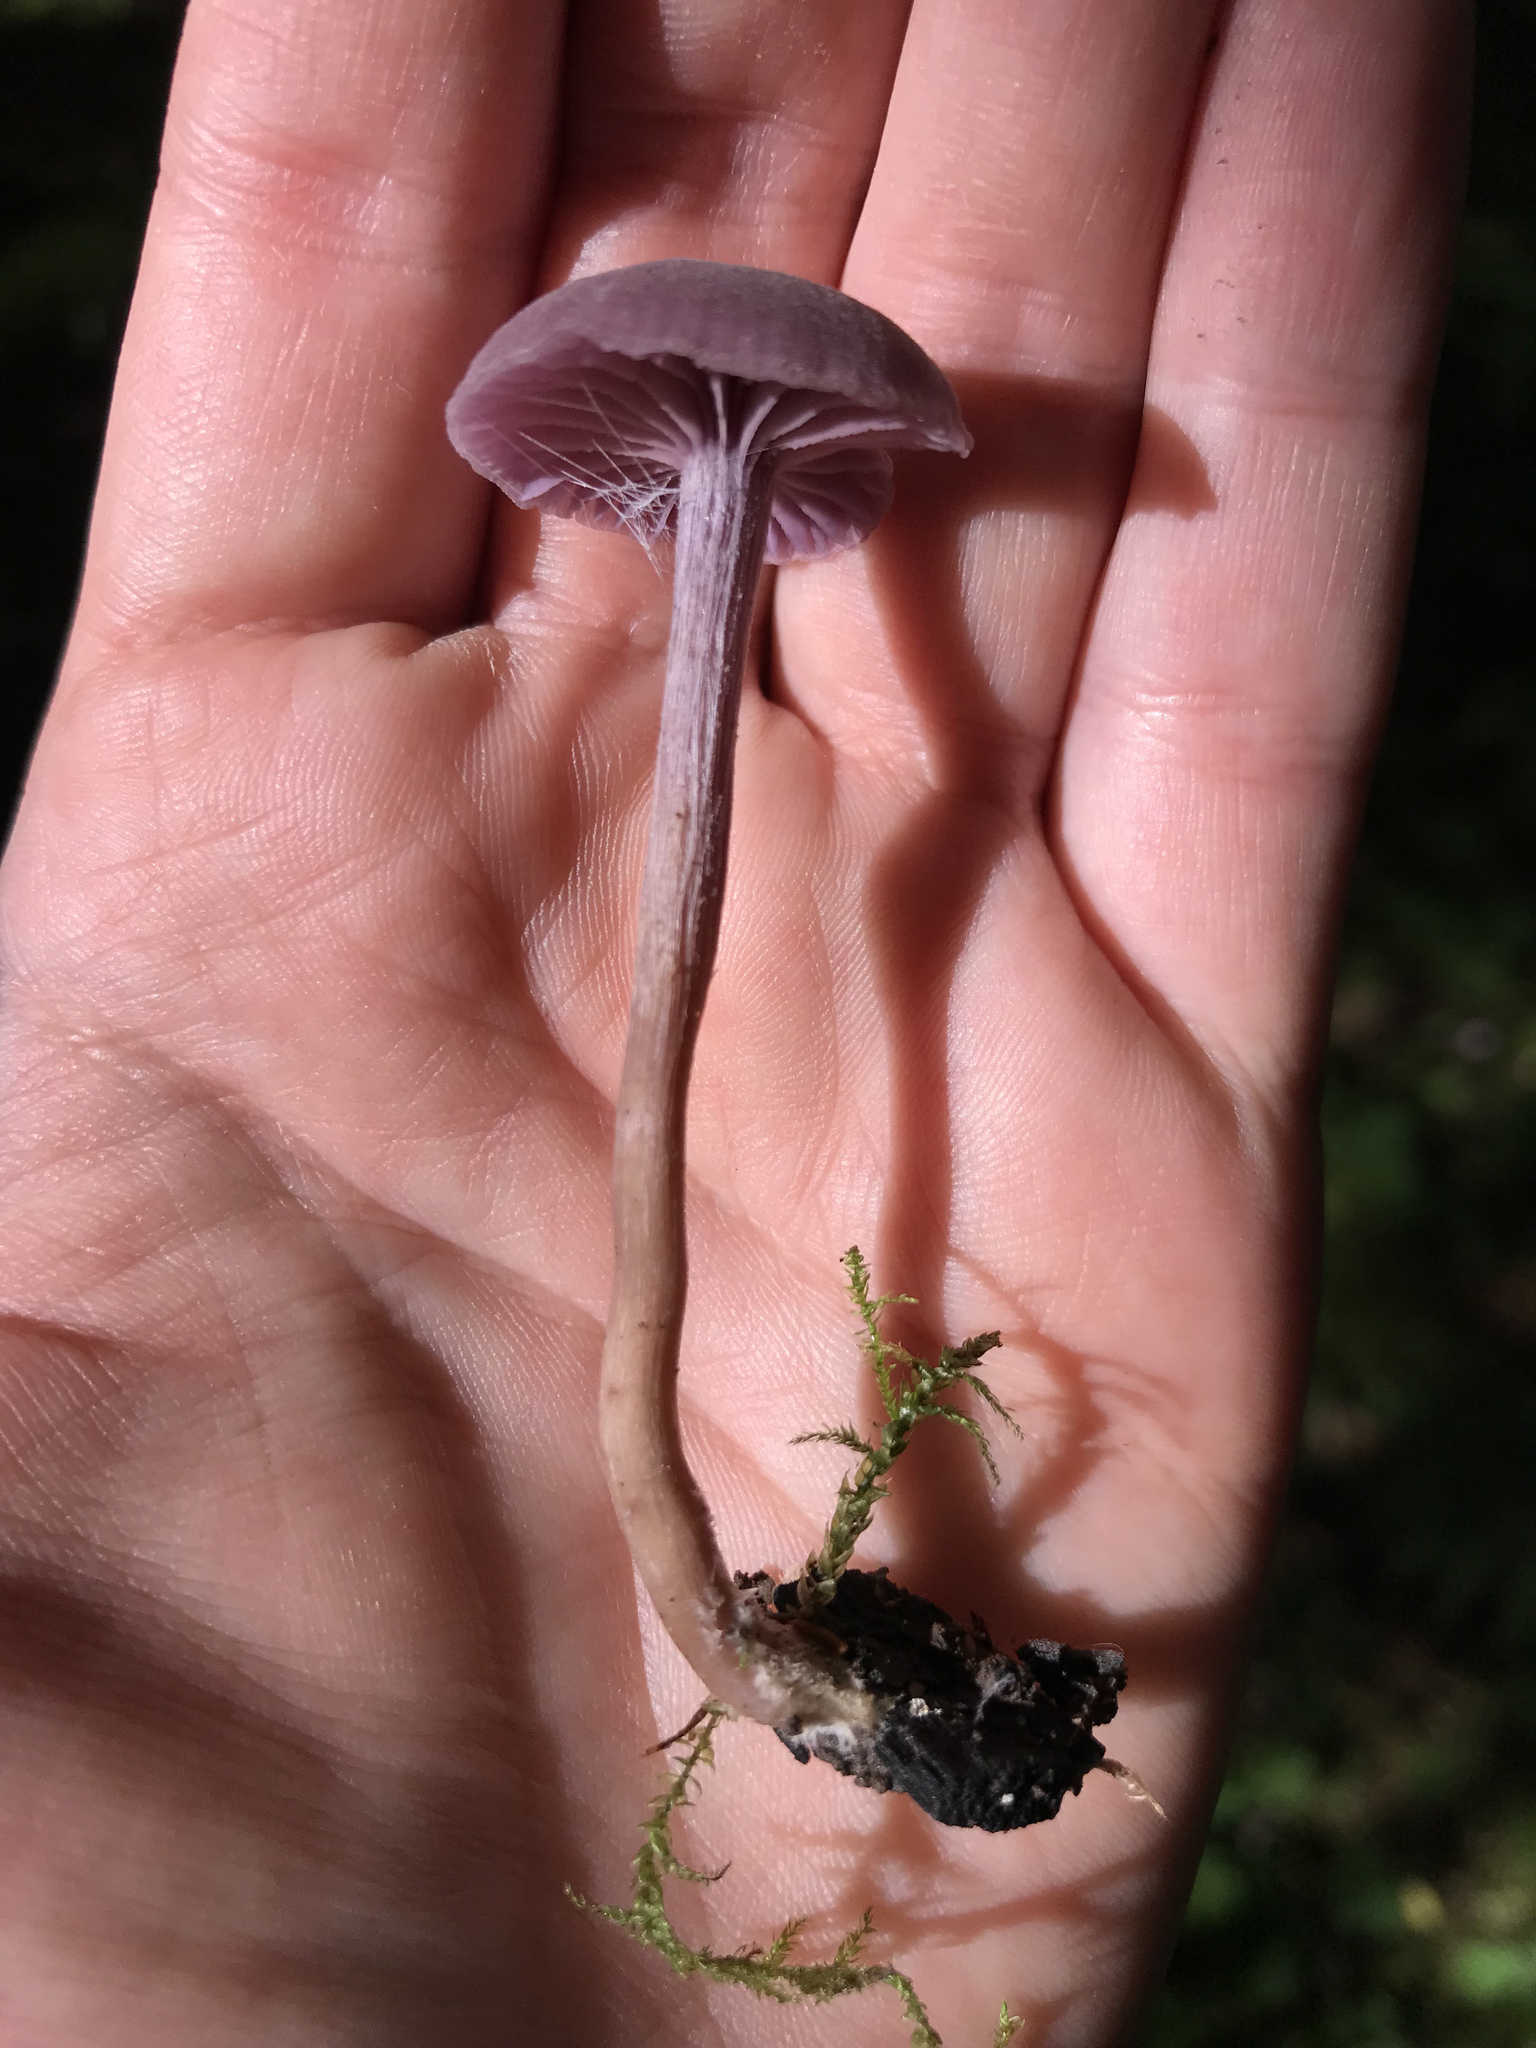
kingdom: Fungi
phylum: Basidiomycota
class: Agaricomycetes
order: Agaricales
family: Hydnangiaceae
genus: Laccaria
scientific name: Laccaria amethystina
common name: Amethyst deceiver
